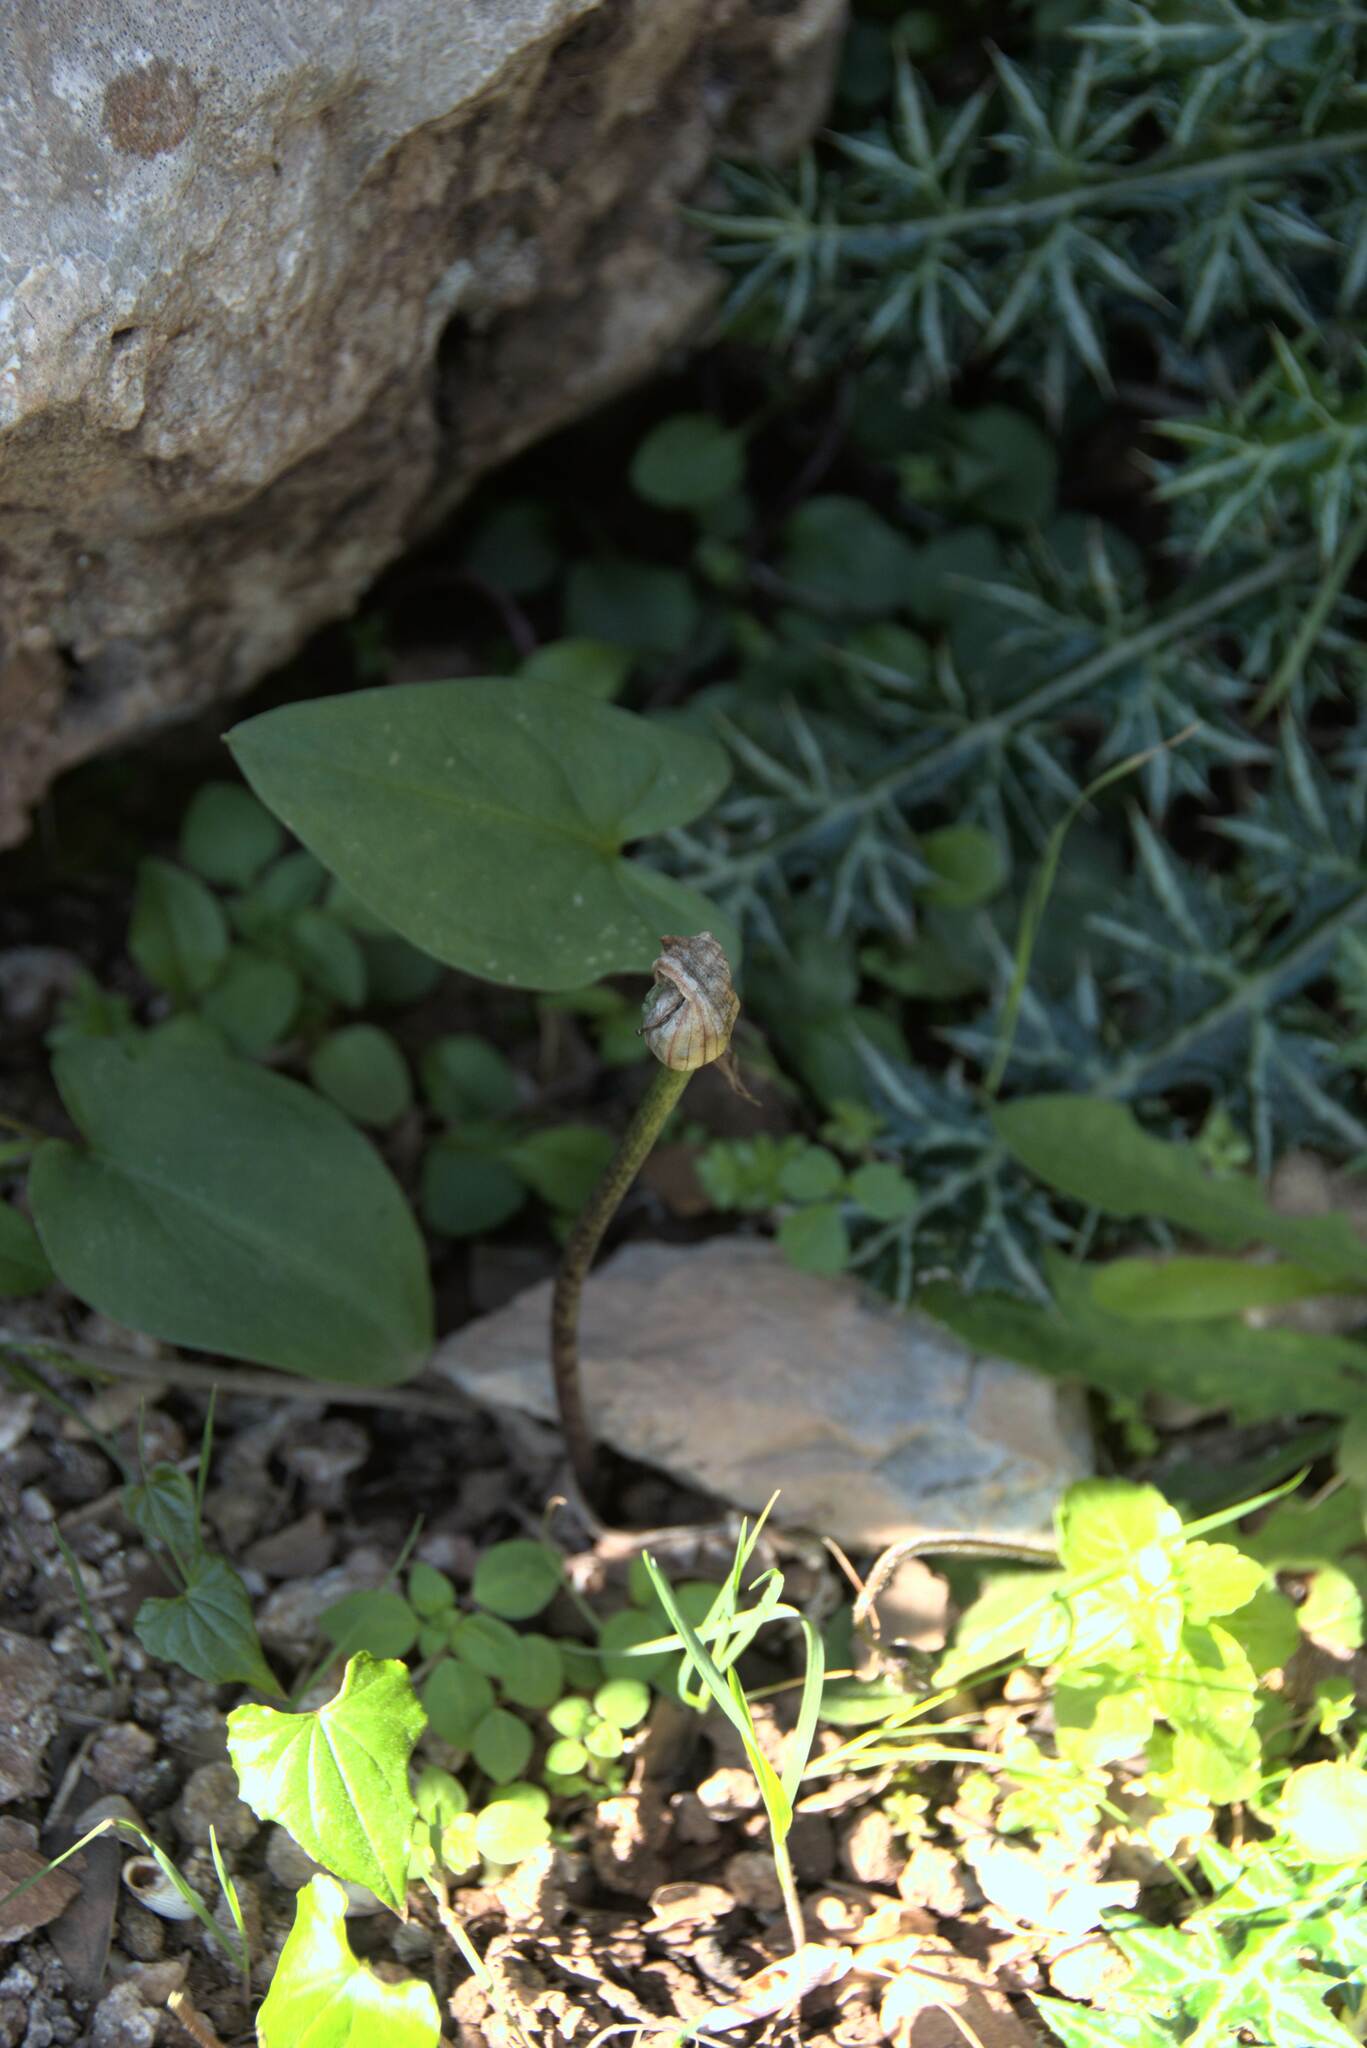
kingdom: Plantae
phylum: Tracheophyta
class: Liliopsida
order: Alismatales
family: Araceae
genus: Arisarum
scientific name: Arisarum vulgare
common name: Common arisarum
